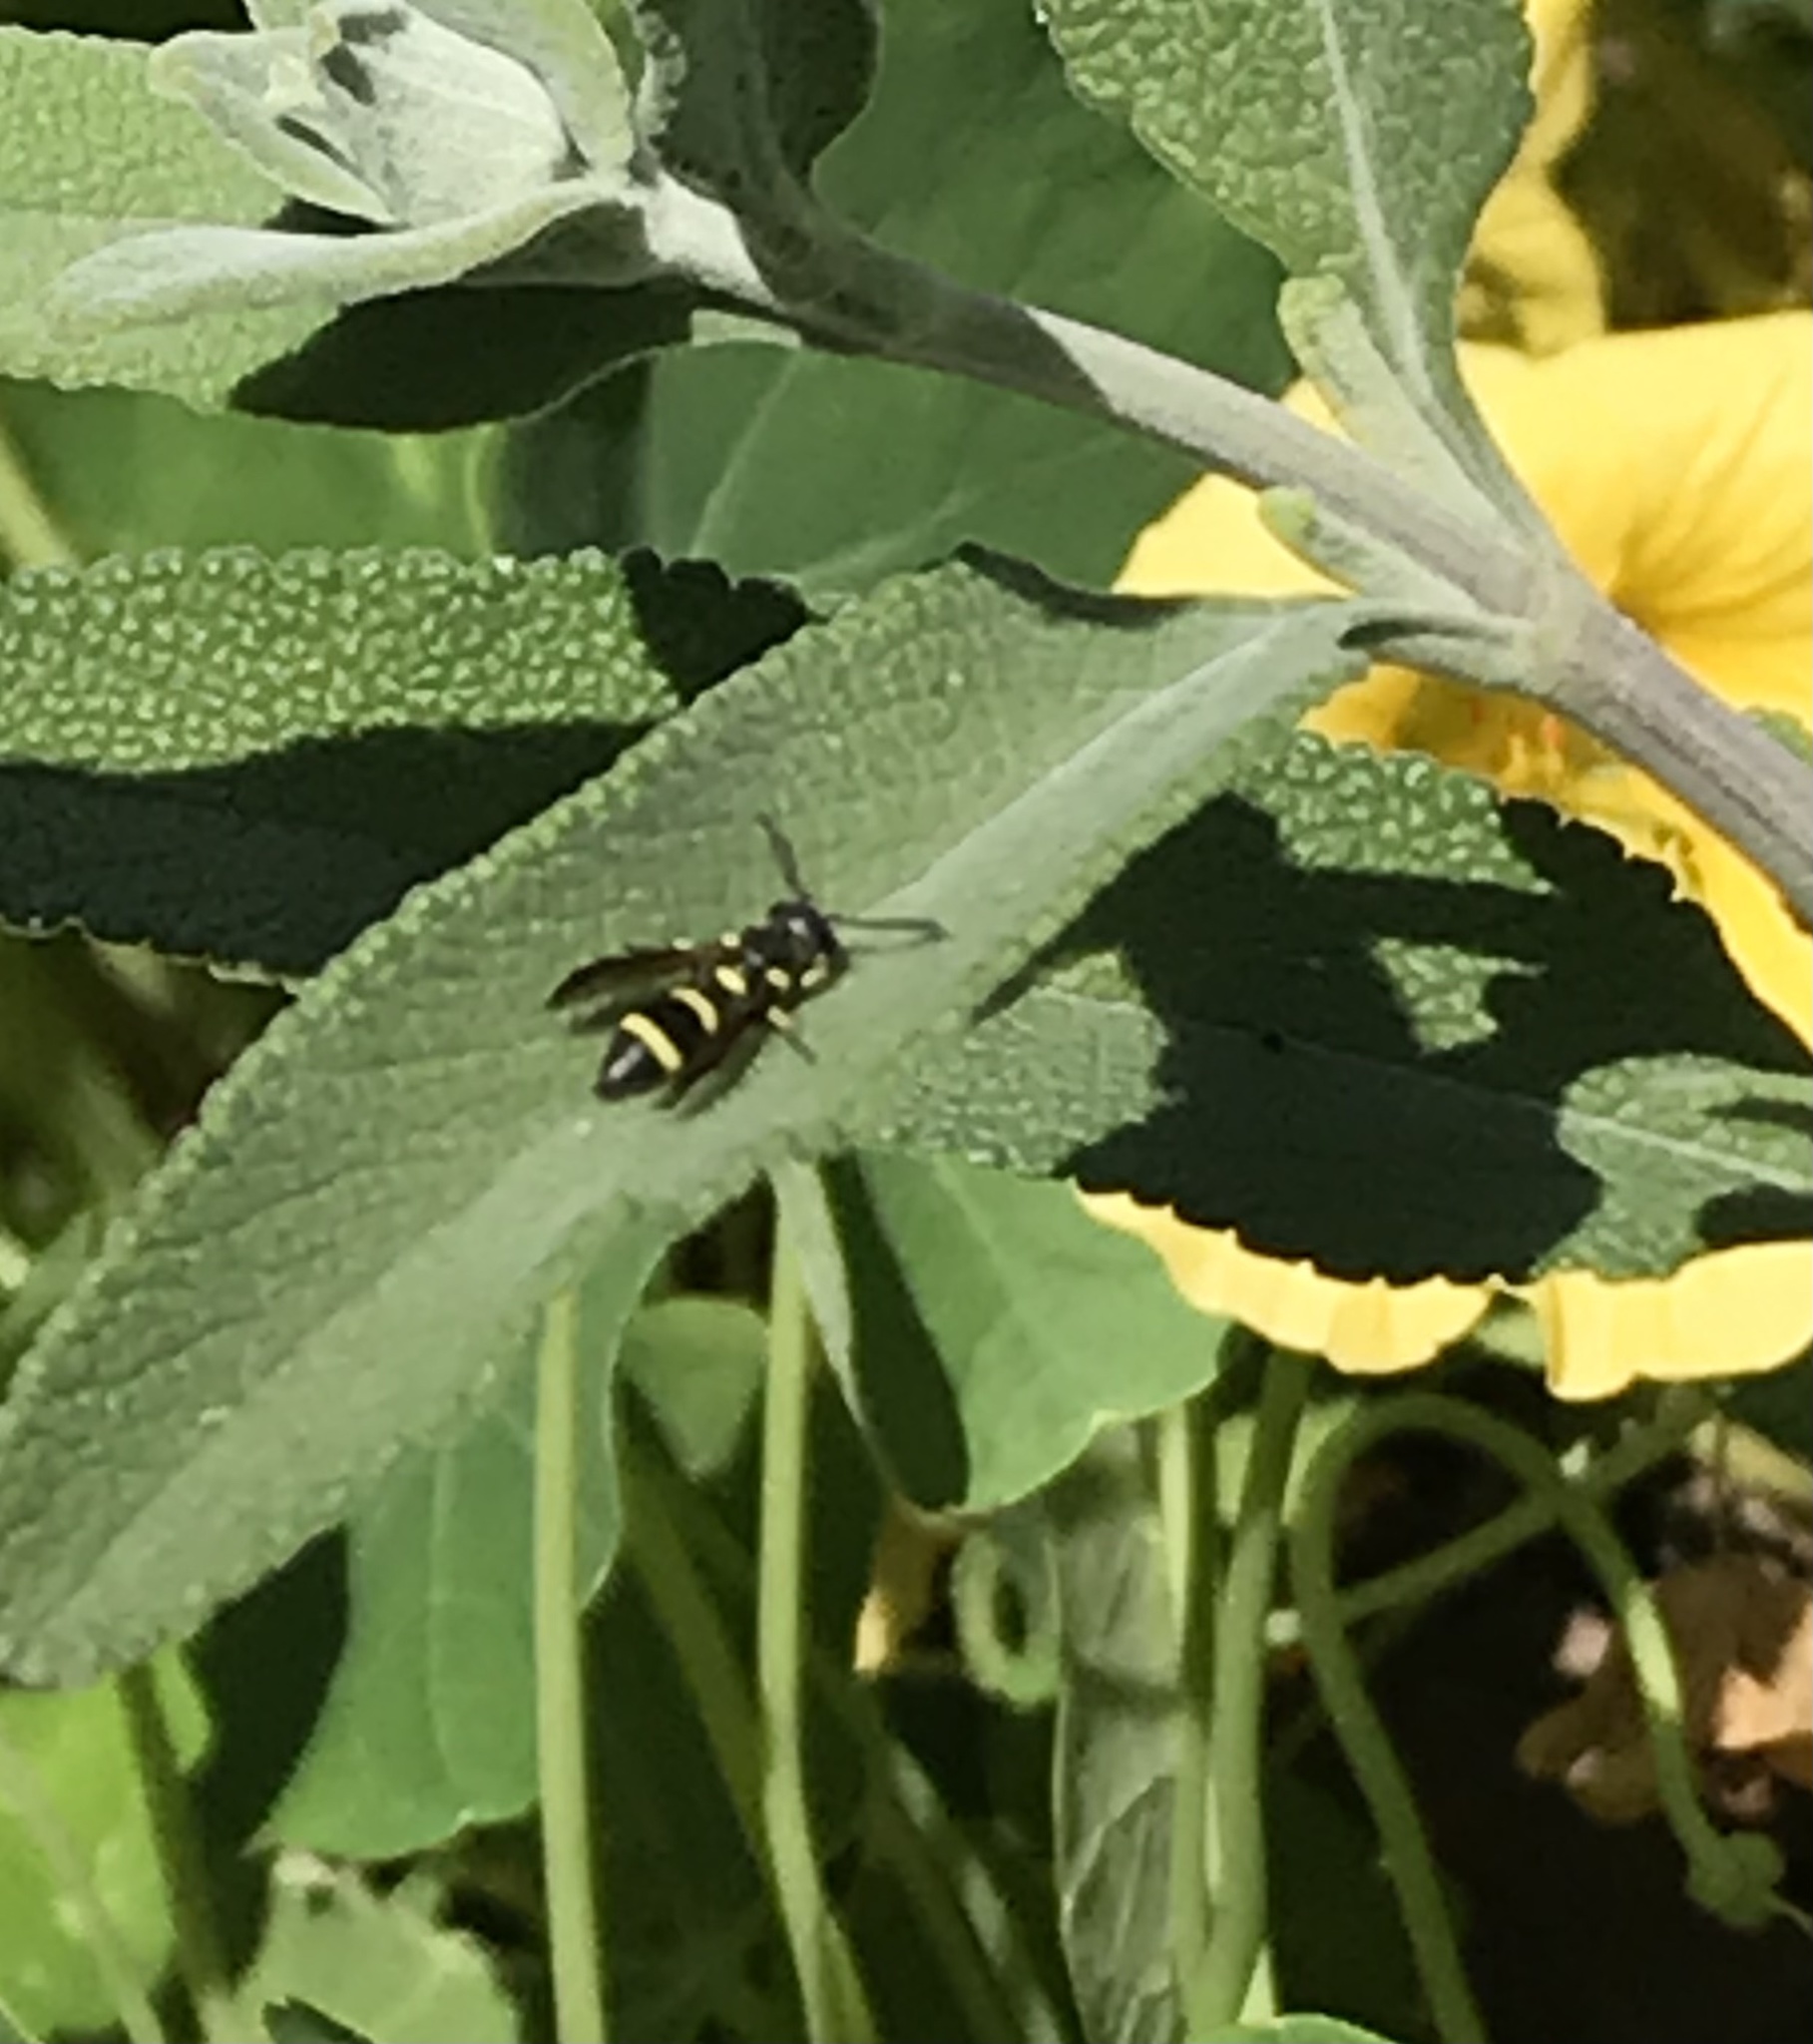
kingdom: Animalia
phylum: Arthropoda
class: Insecta
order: Hymenoptera
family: Eumenidae
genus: Parancistrocerus
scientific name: Parancistrocerus declivatus
